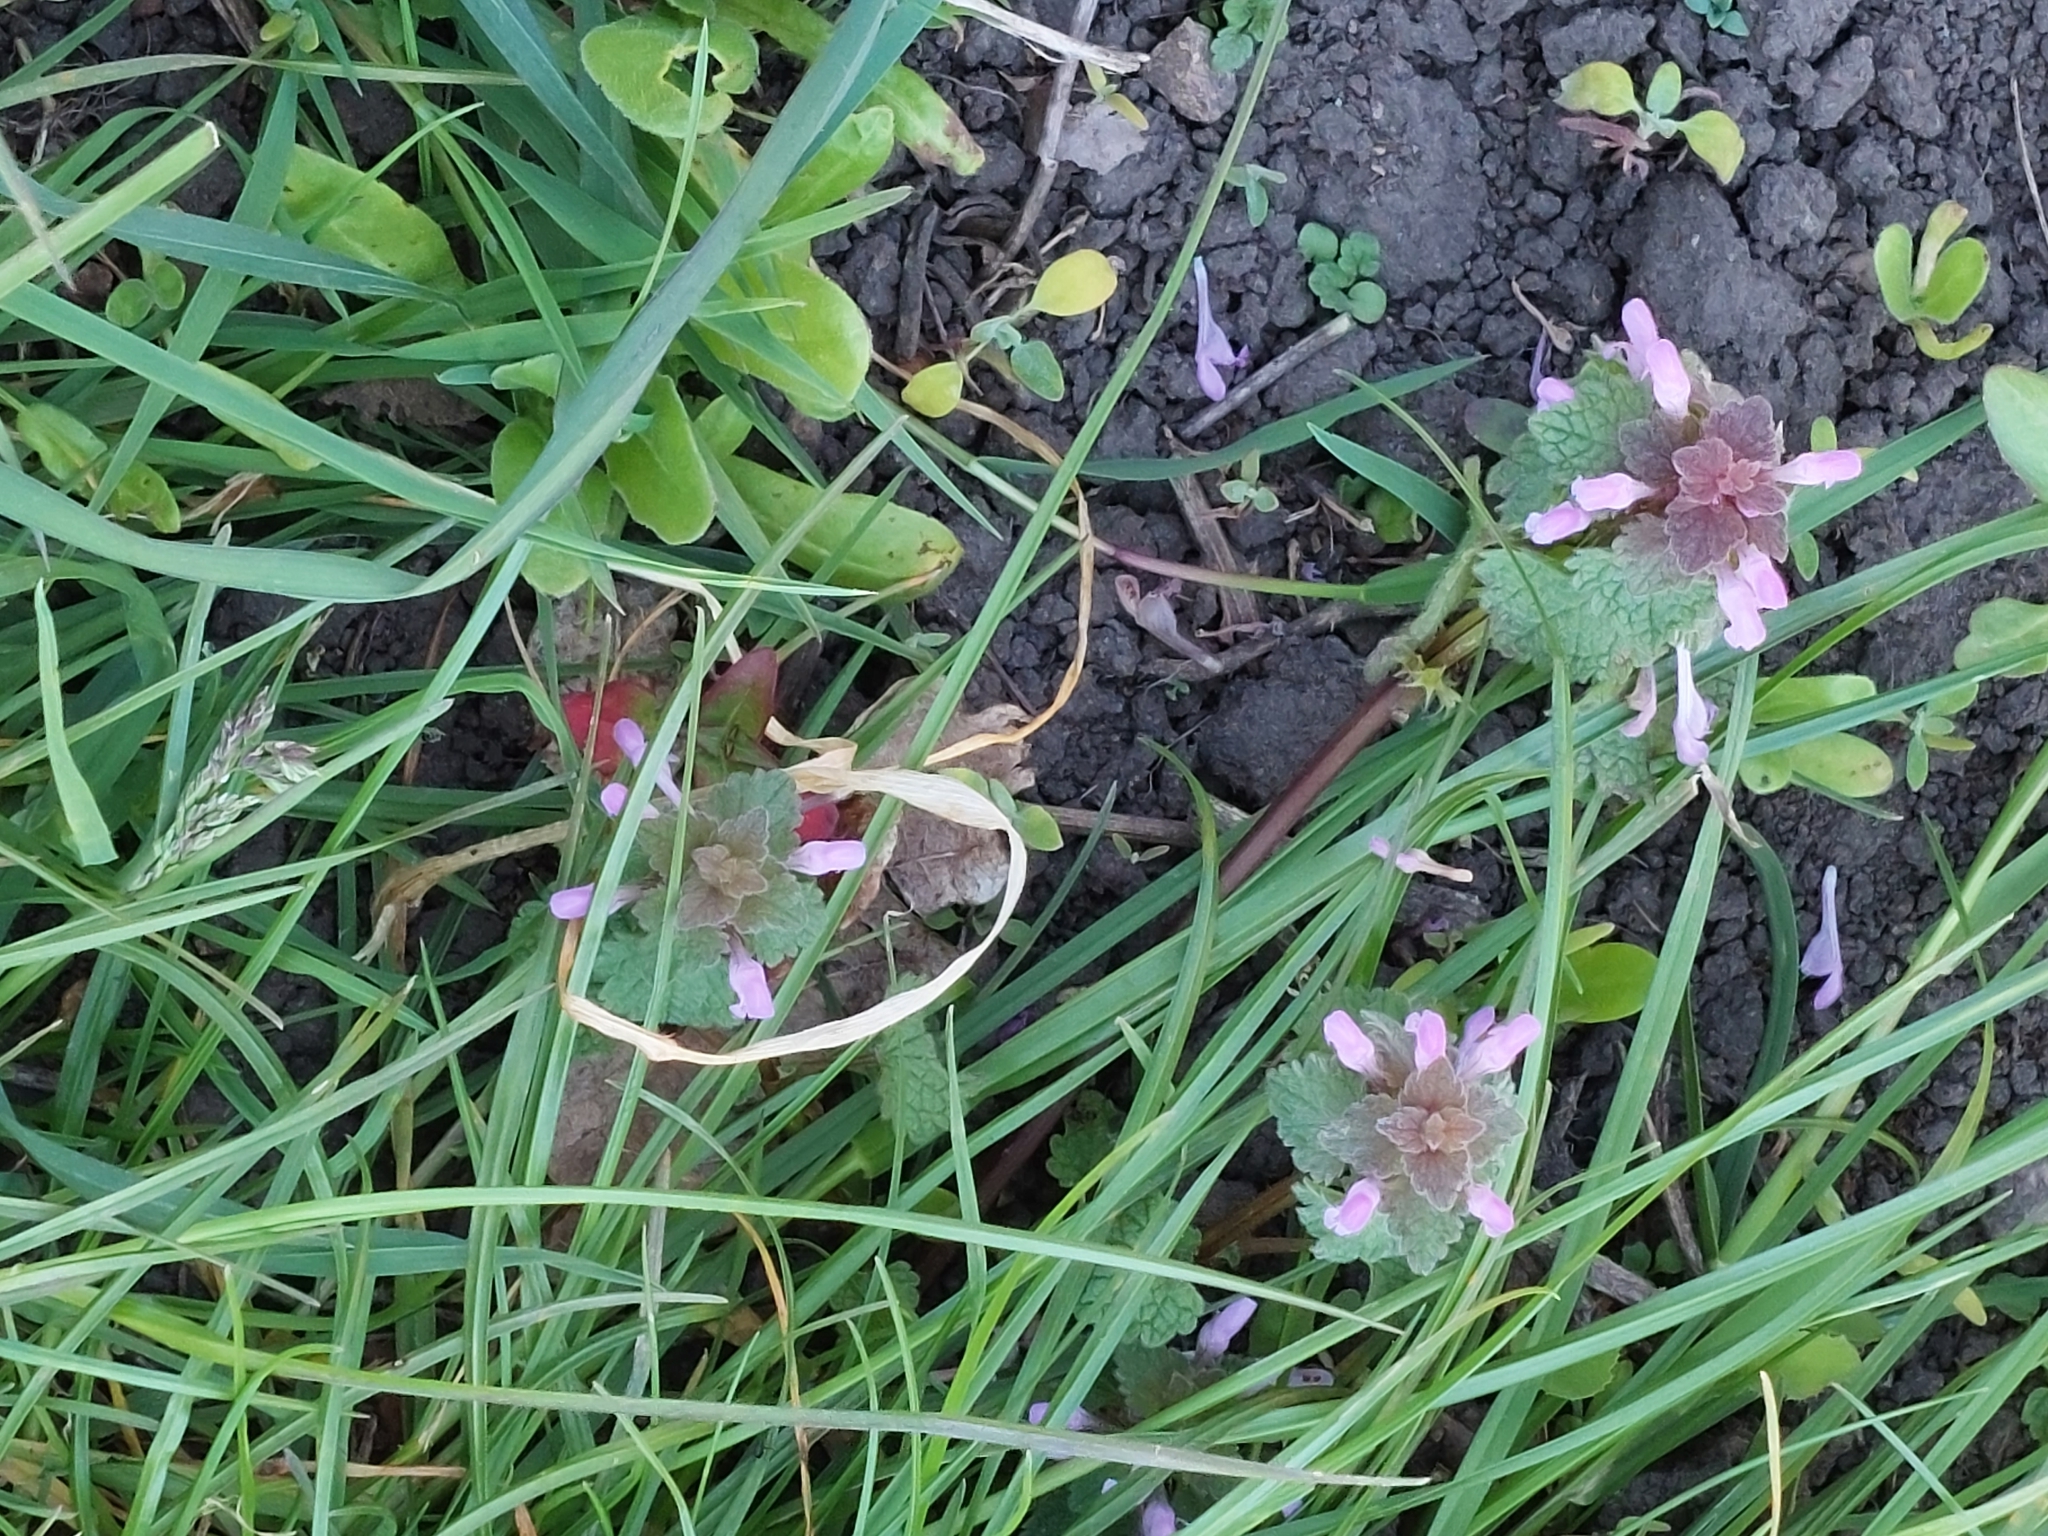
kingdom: Plantae
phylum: Tracheophyta
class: Magnoliopsida
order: Lamiales
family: Lamiaceae
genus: Lamium
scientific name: Lamium purpureum
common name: Red dead-nettle
